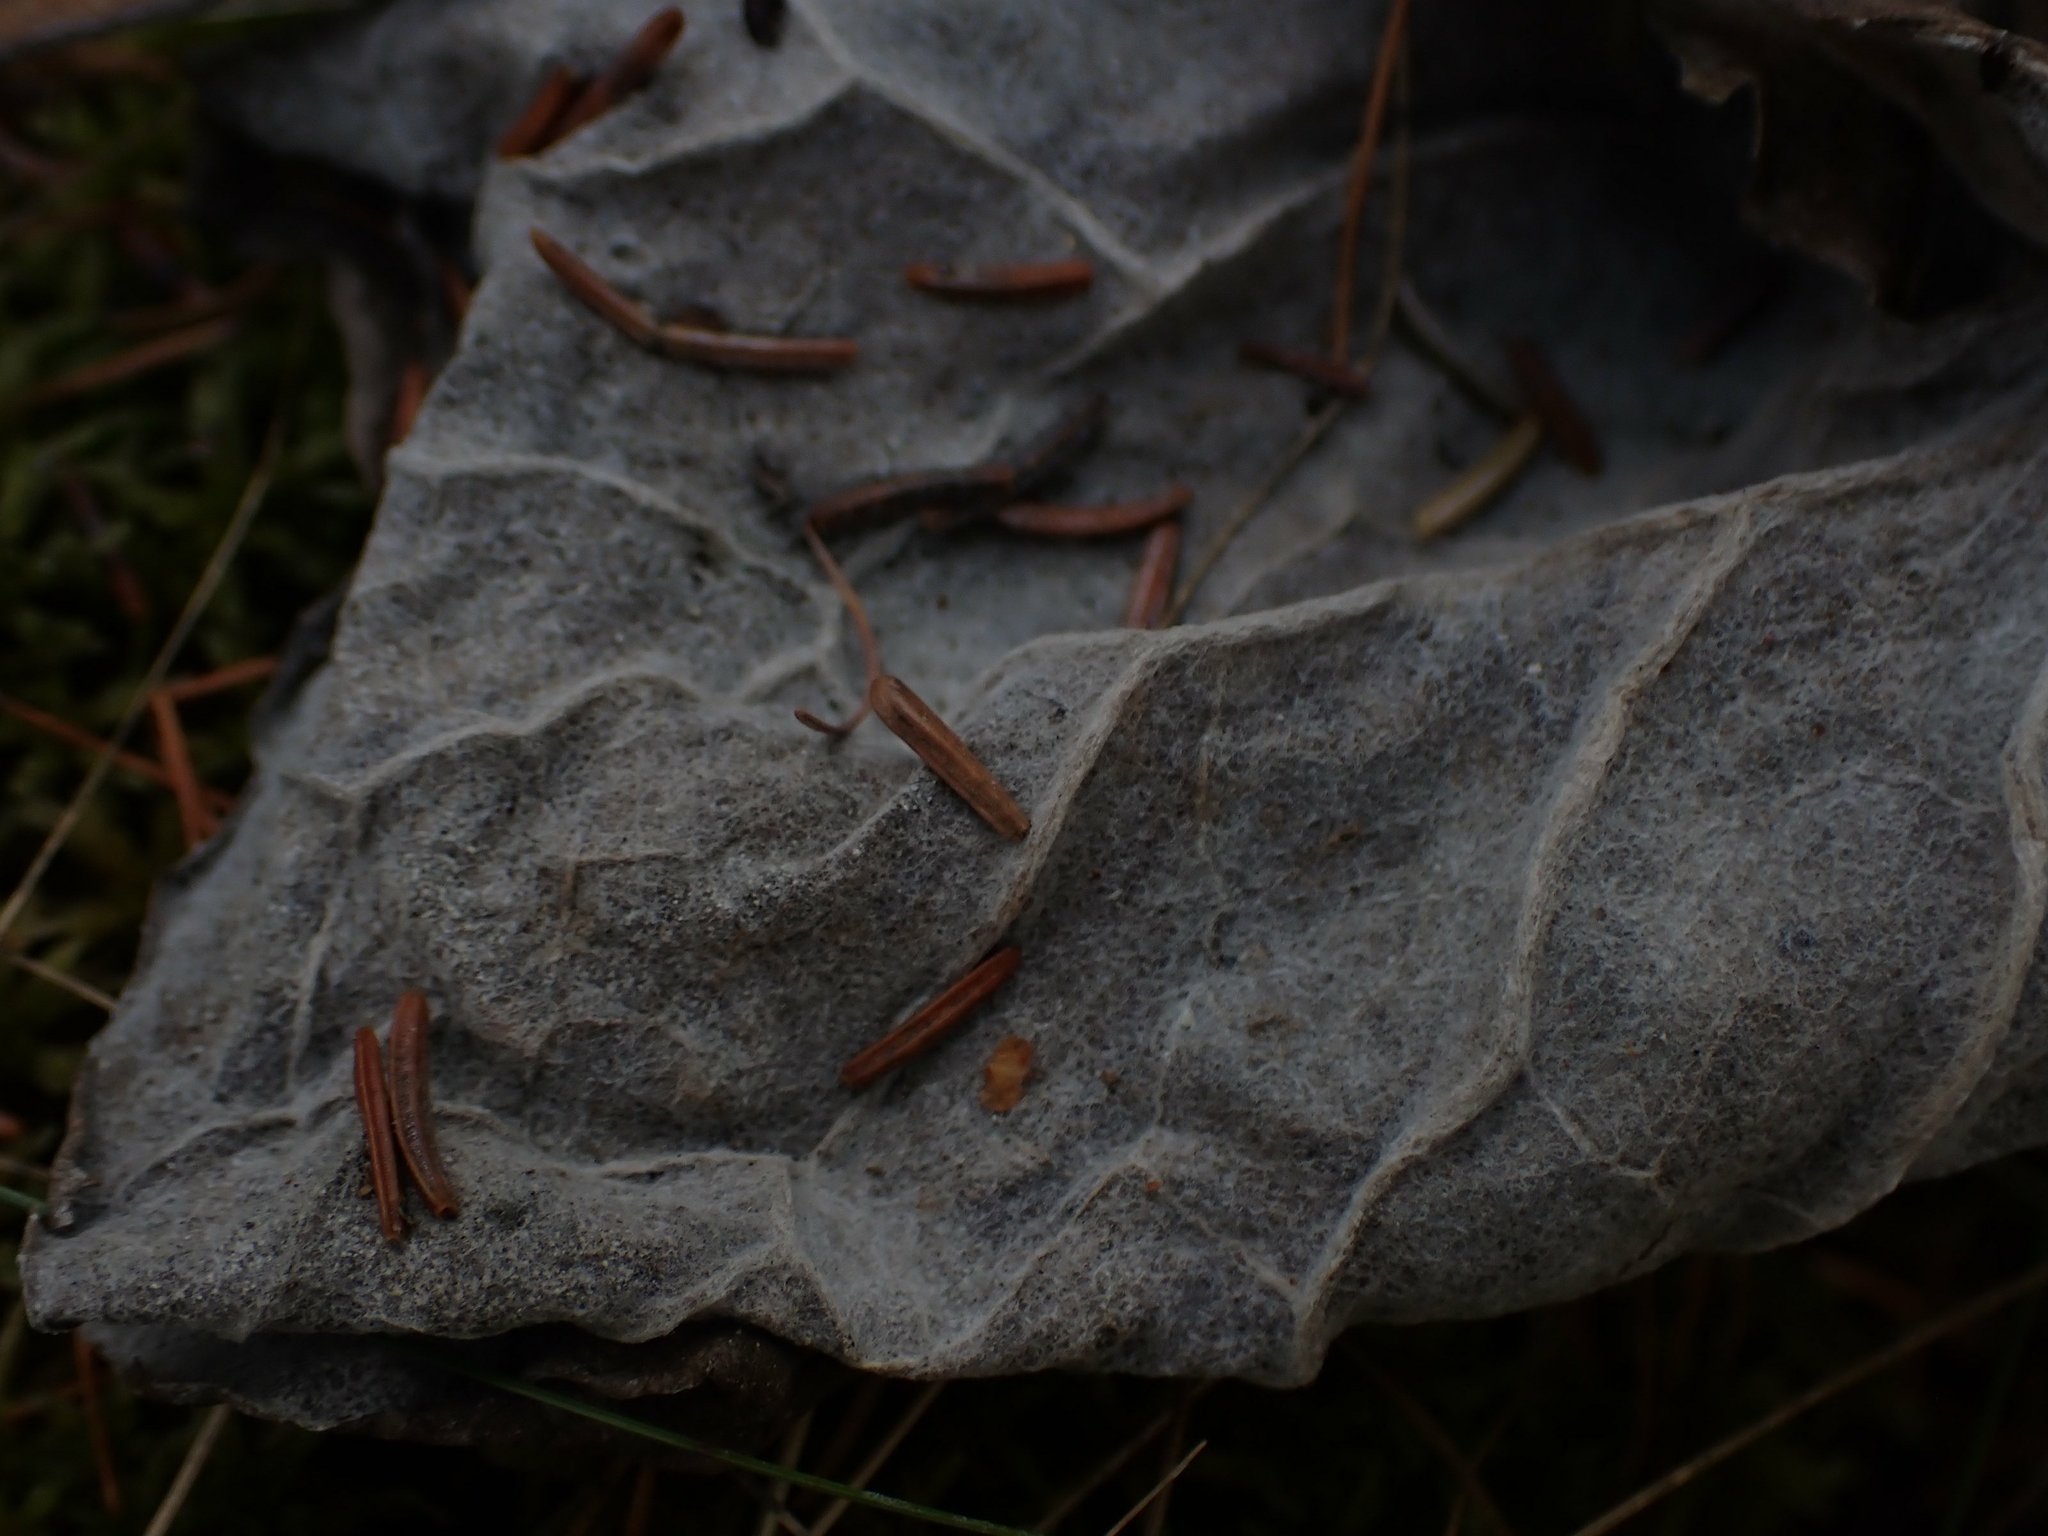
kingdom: Plantae
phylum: Tracheophyta
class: Magnoliopsida
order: Asterales
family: Asteraceae
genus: Petasites
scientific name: Petasites frigidus
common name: Arctic butterbur
